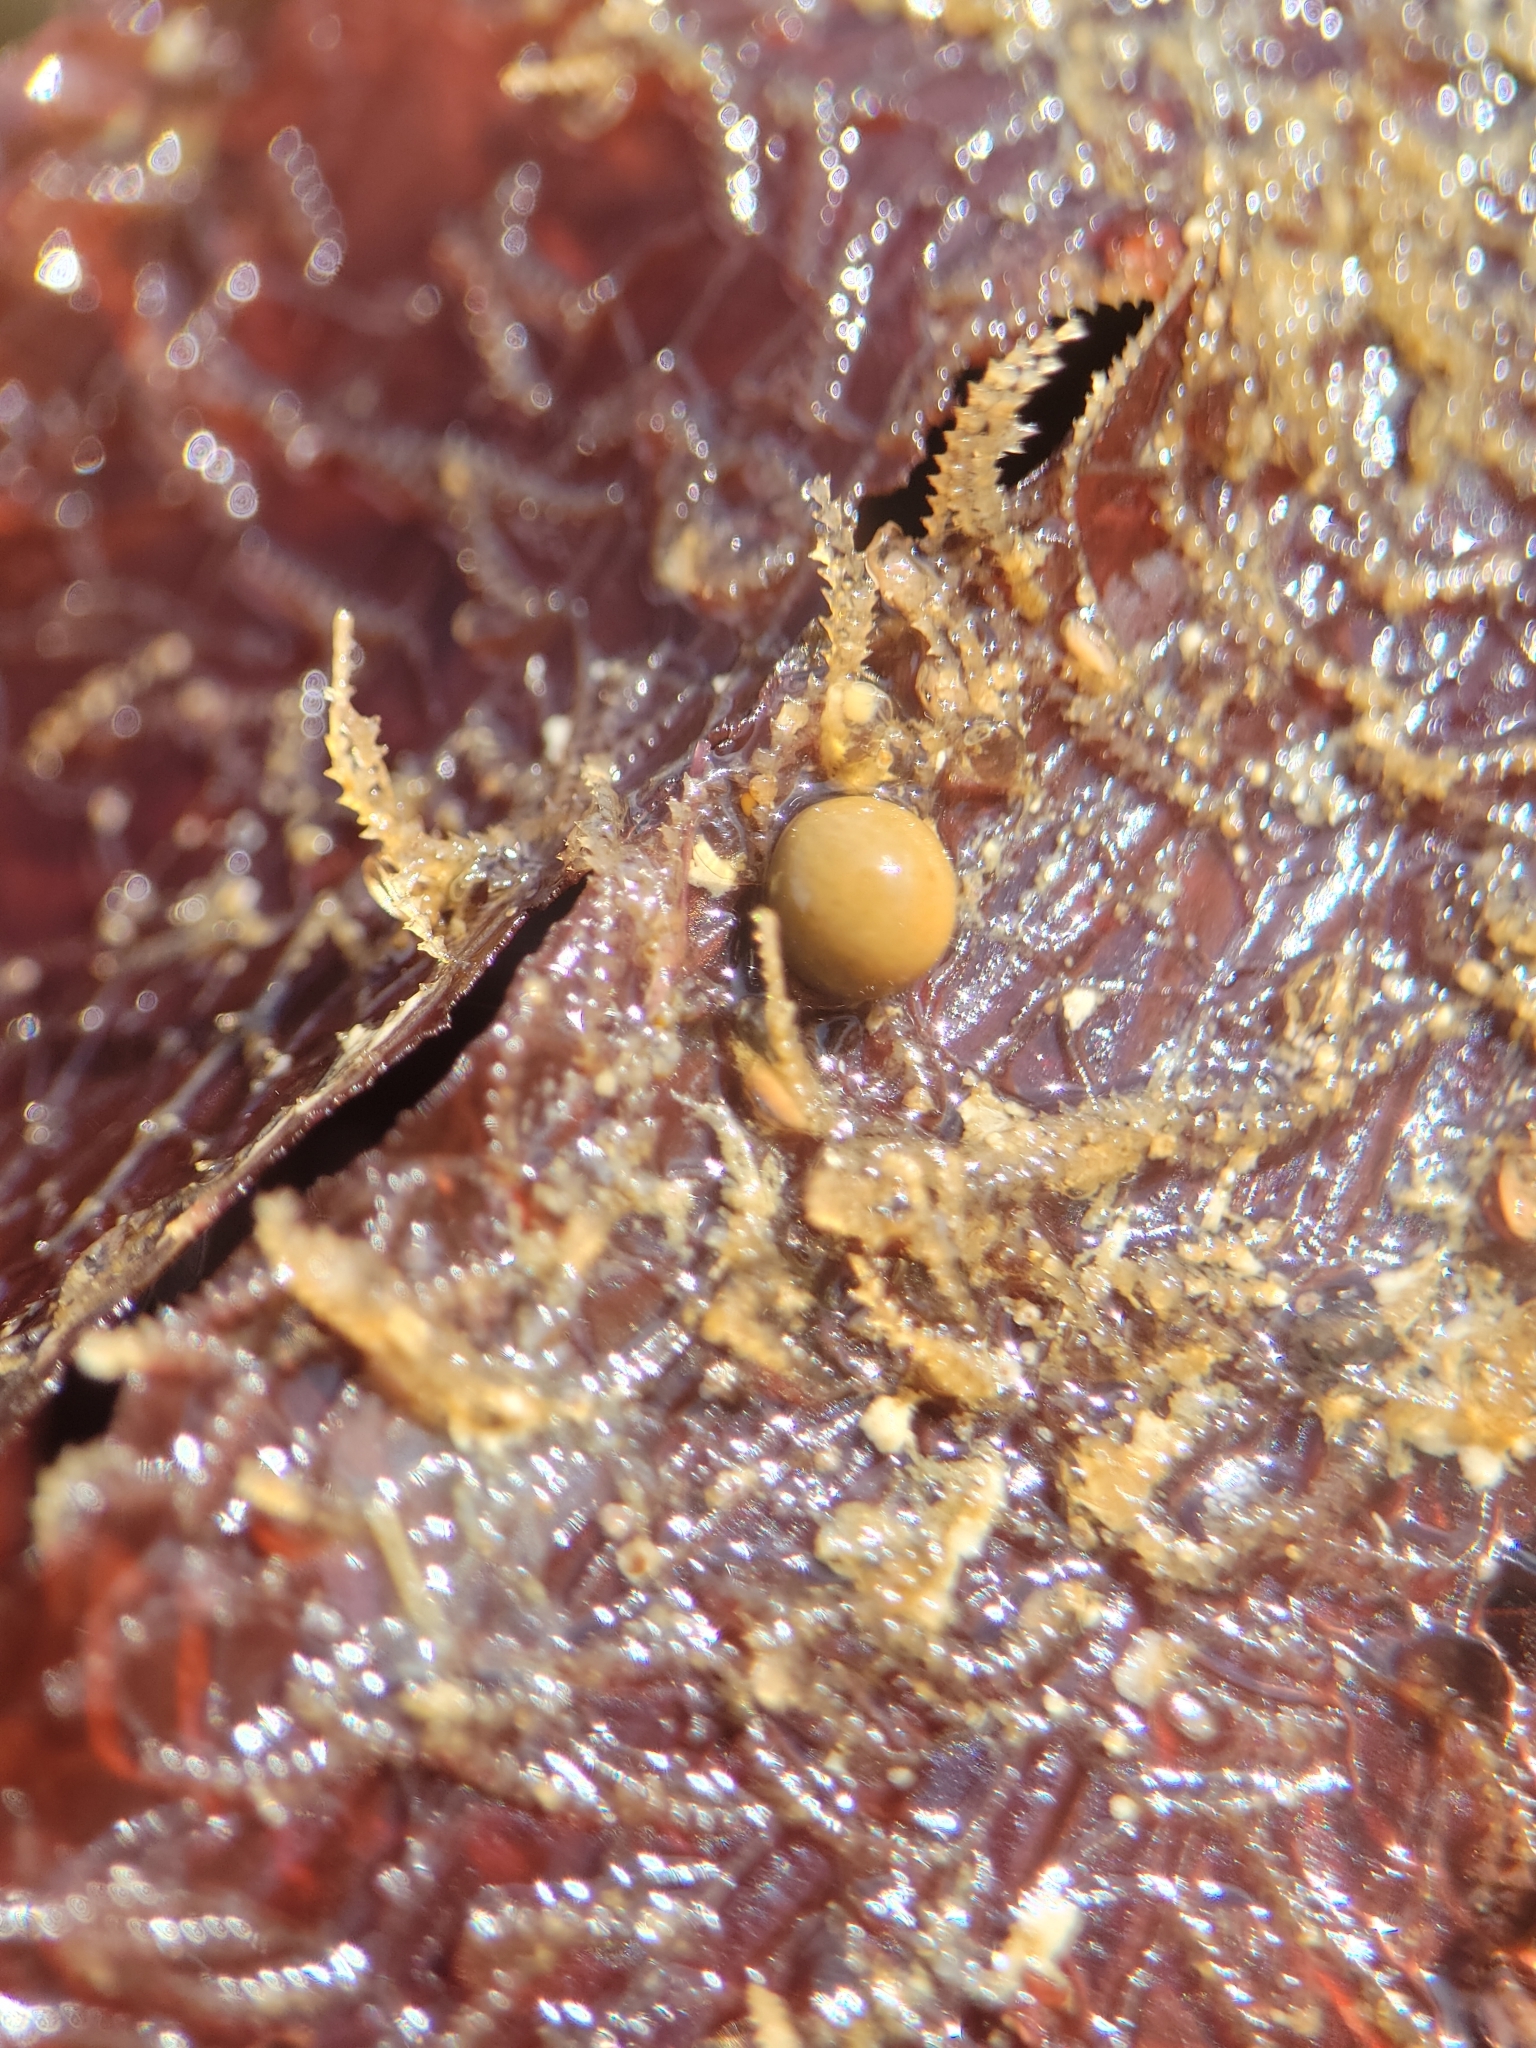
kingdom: Protozoa
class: Filosia
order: Aconchulinida
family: Gromiidae
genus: Gromia
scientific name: Gromia oviformis
